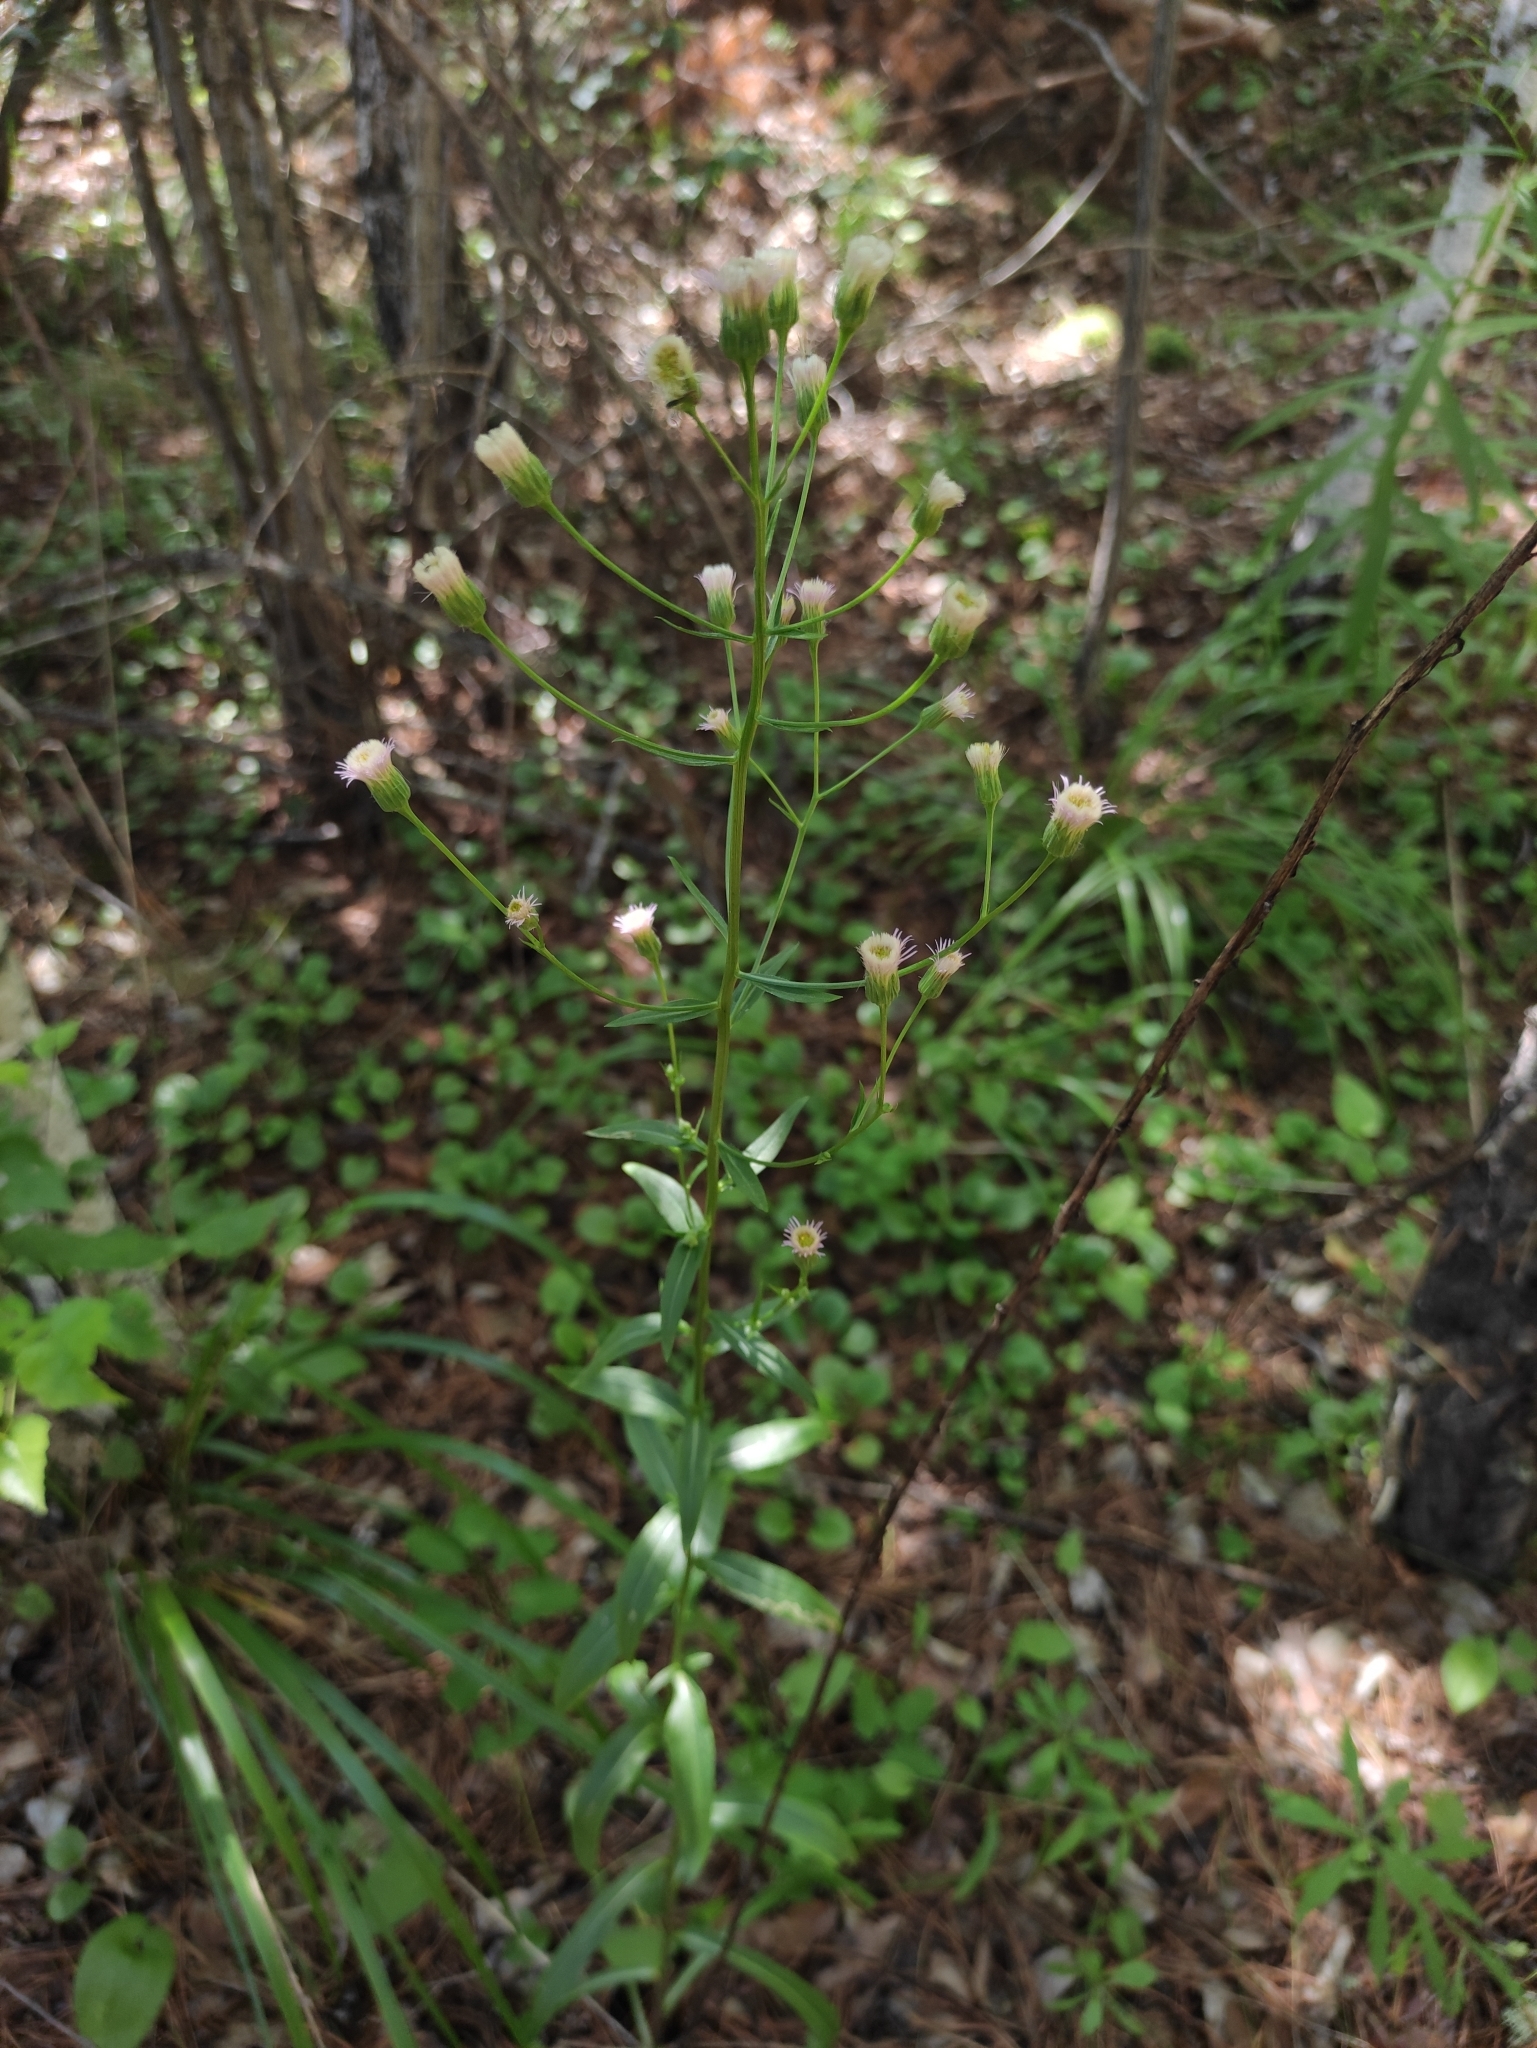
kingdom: Plantae
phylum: Tracheophyta
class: Magnoliopsida
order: Asterales
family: Asteraceae
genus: Erigeron
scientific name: Erigeron acris
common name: Blue fleabane
